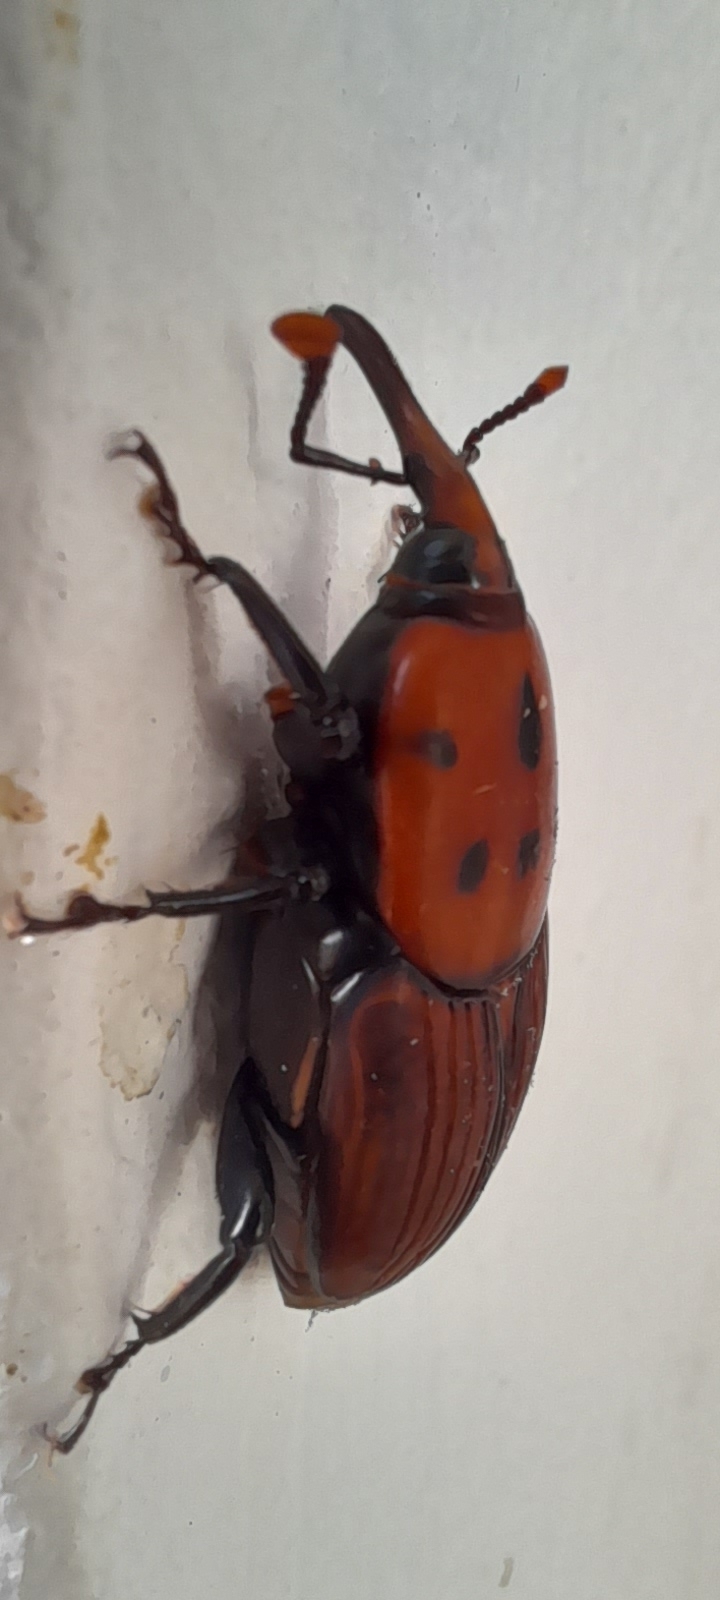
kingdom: Animalia
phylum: Arthropoda
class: Insecta
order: Coleoptera
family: Dryophthoridae
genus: Rhynchophorus
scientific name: Rhynchophorus ferrugineus
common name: Red palm weevil
